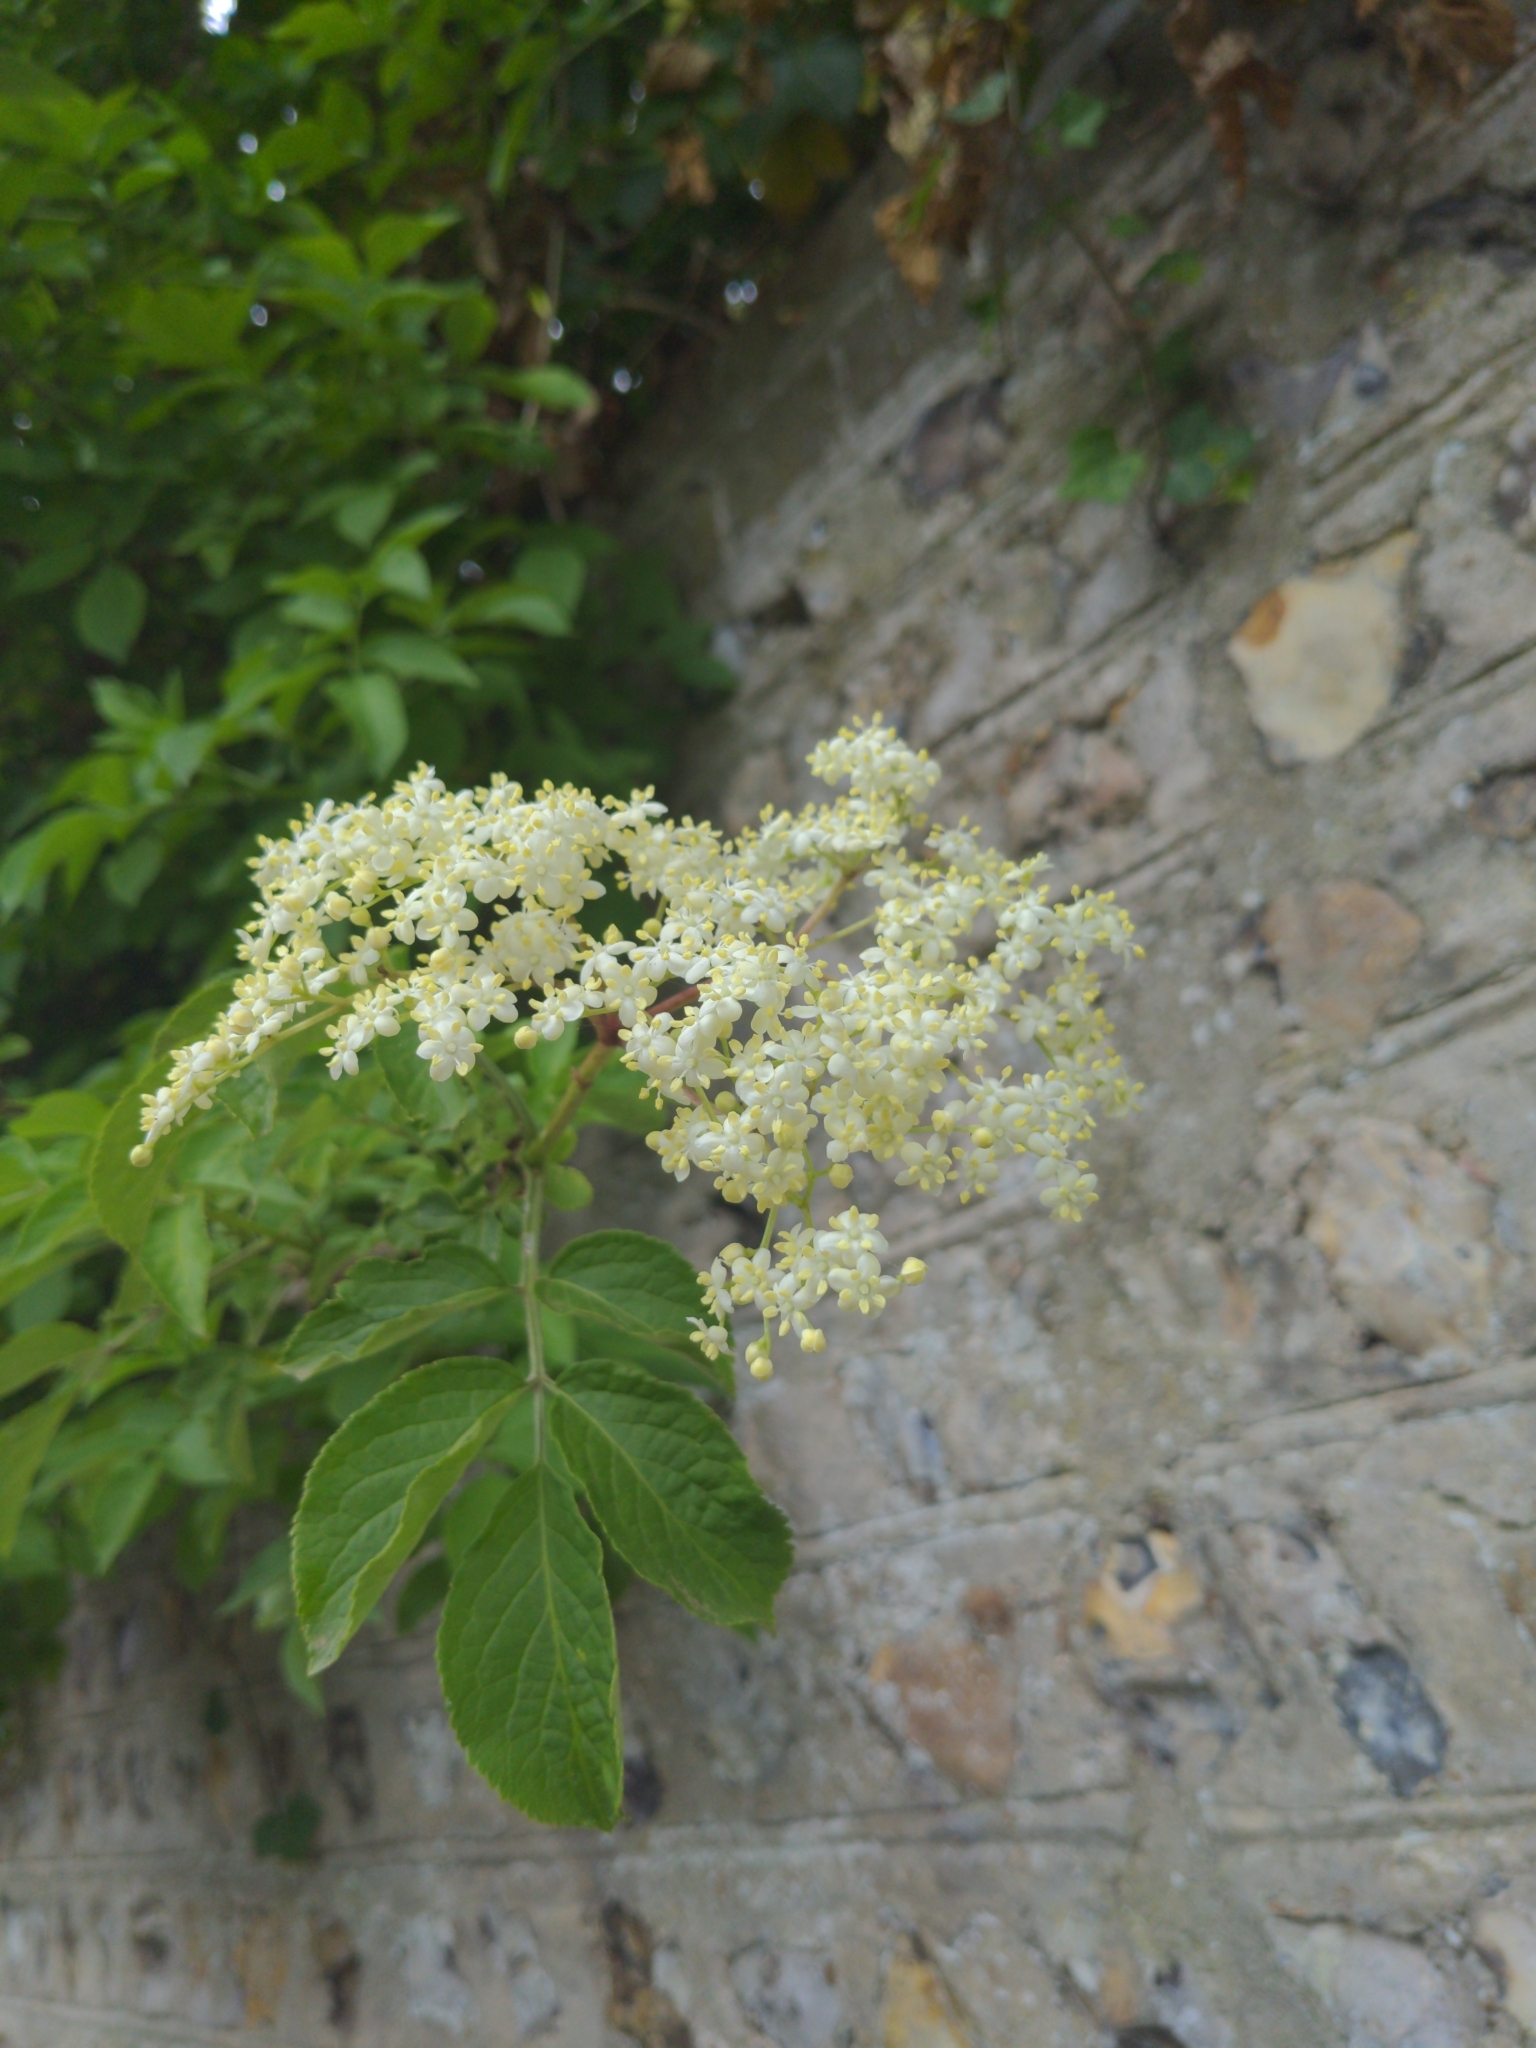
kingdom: Plantae
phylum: Tracheophyta
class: Magnoliopsida
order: Dipsacales
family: Viburnaceae
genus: Sambucus
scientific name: Sambucus nigra
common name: Elder
